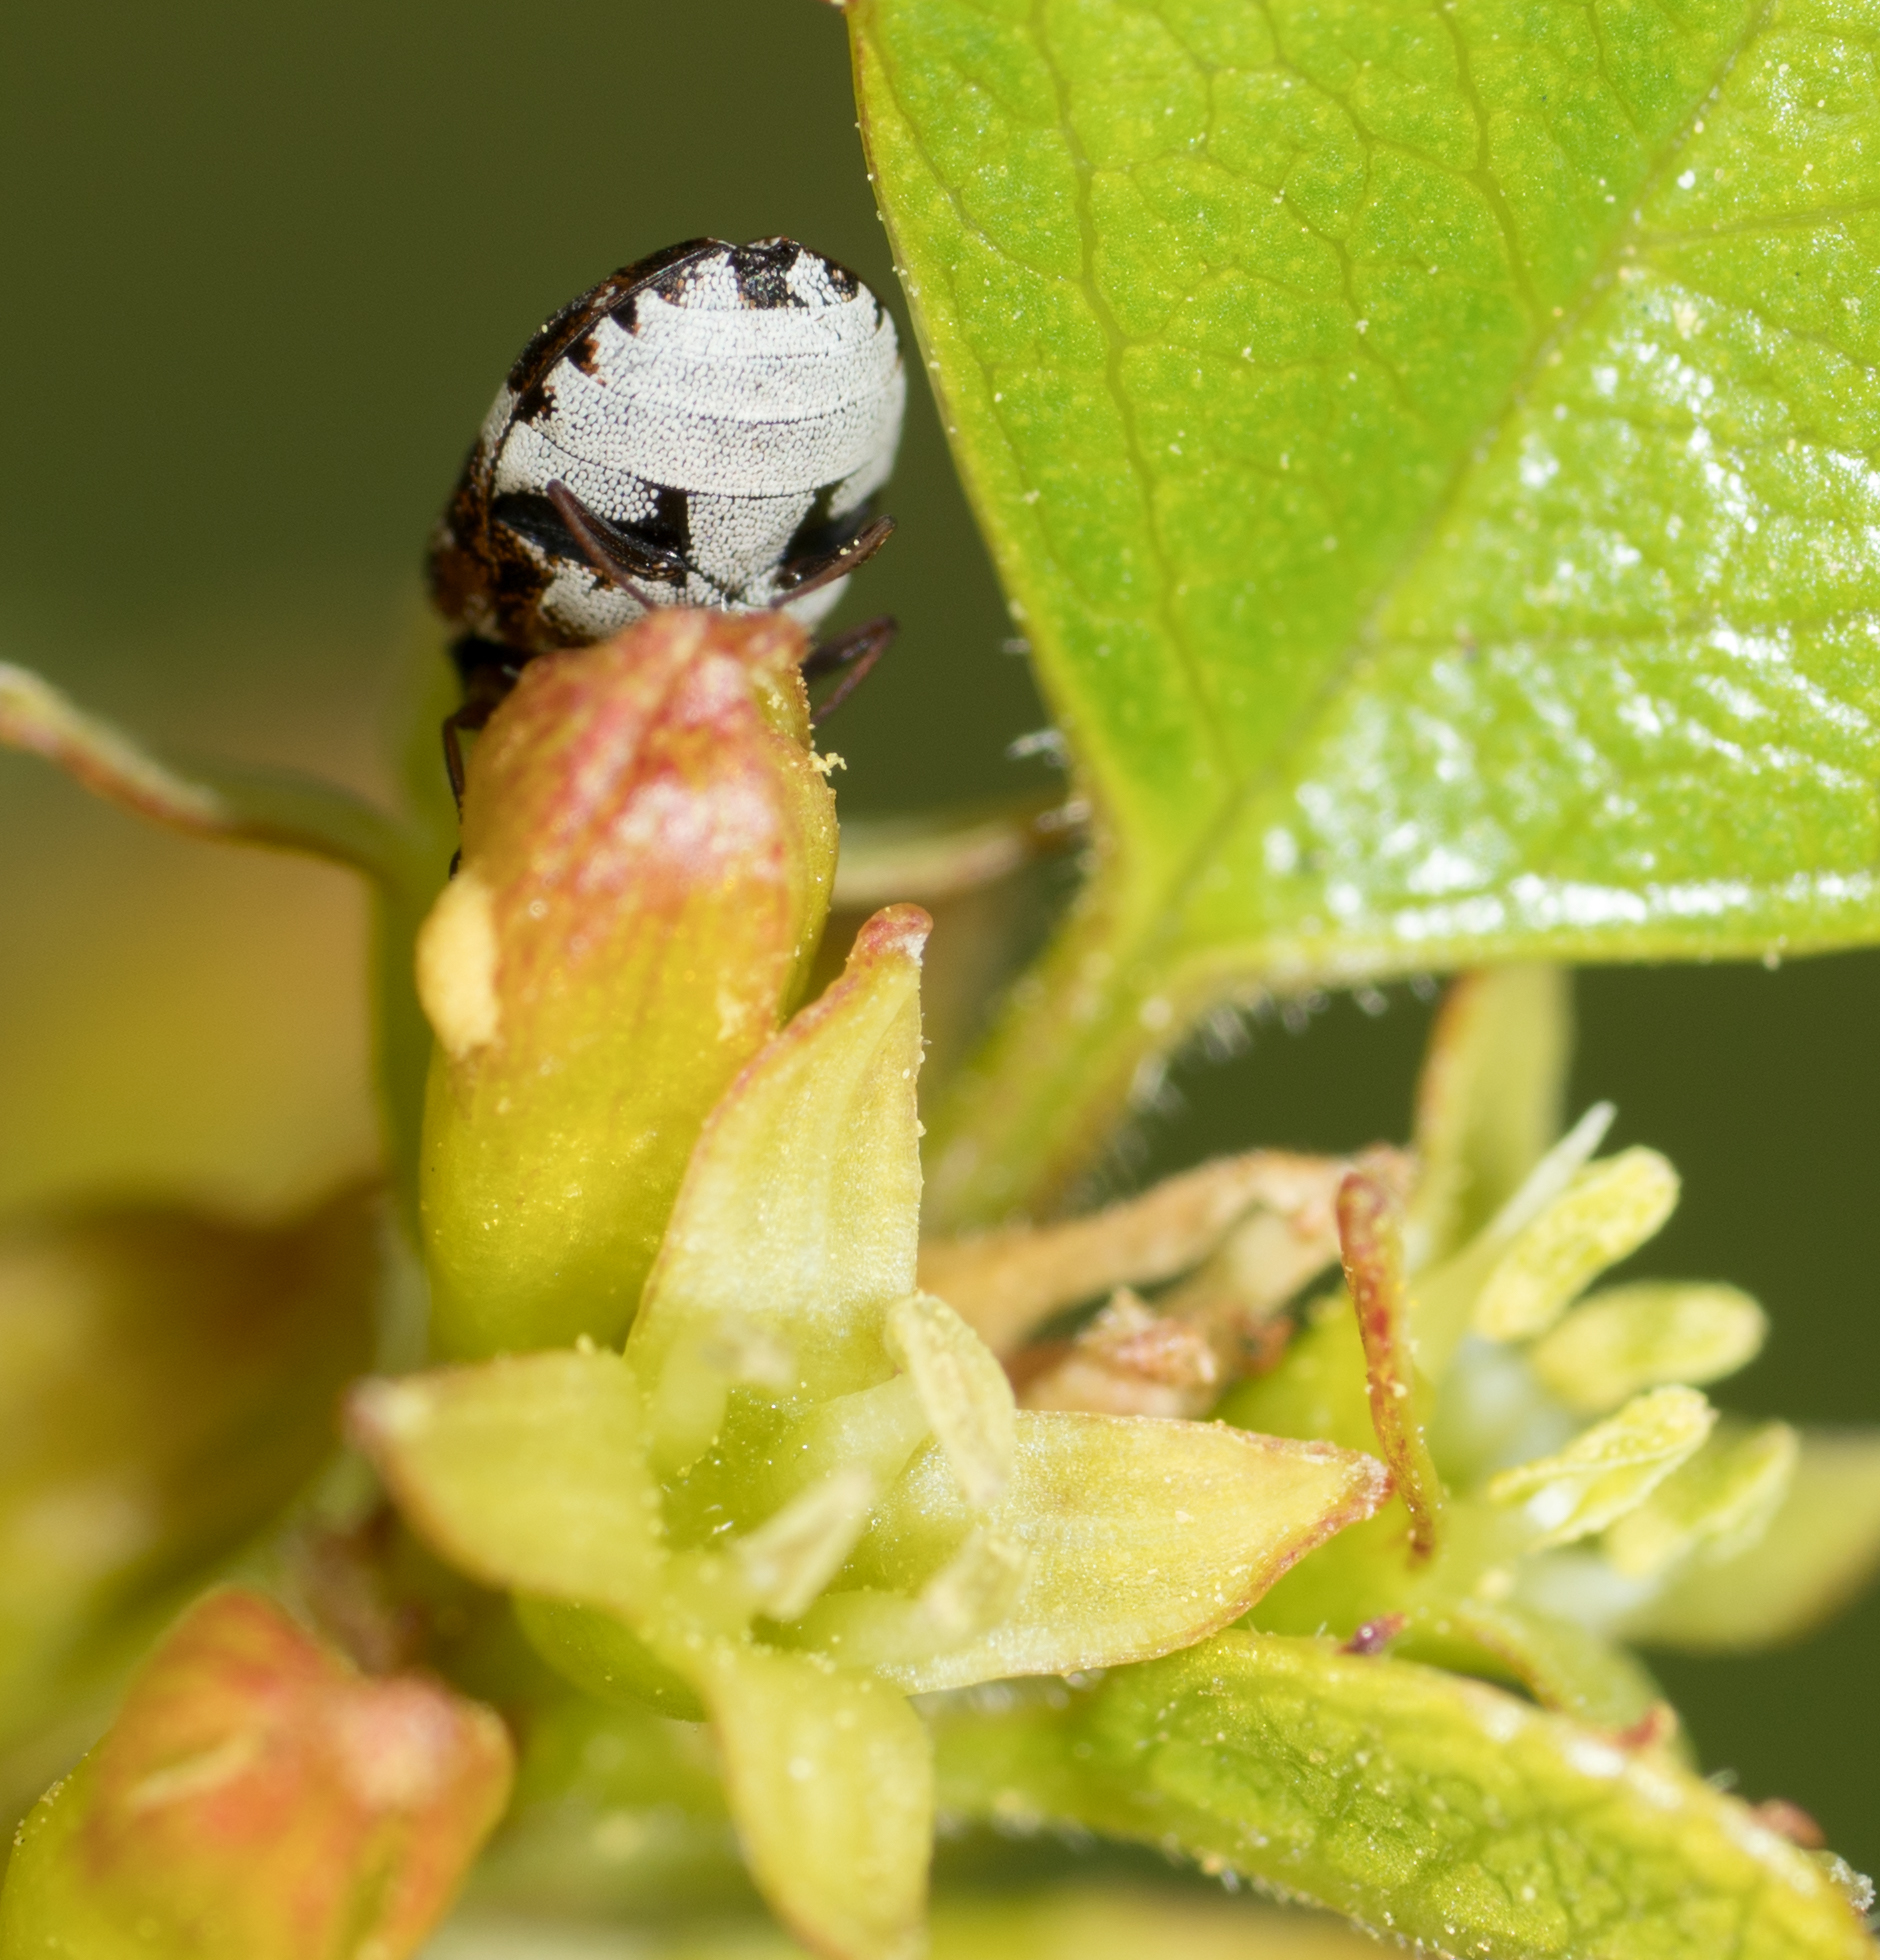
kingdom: Animalia
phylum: Arthropoda
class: Insecta
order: Coleoptera
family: Dermestidae
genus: Anthrenus
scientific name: Anthrenus lepidus
